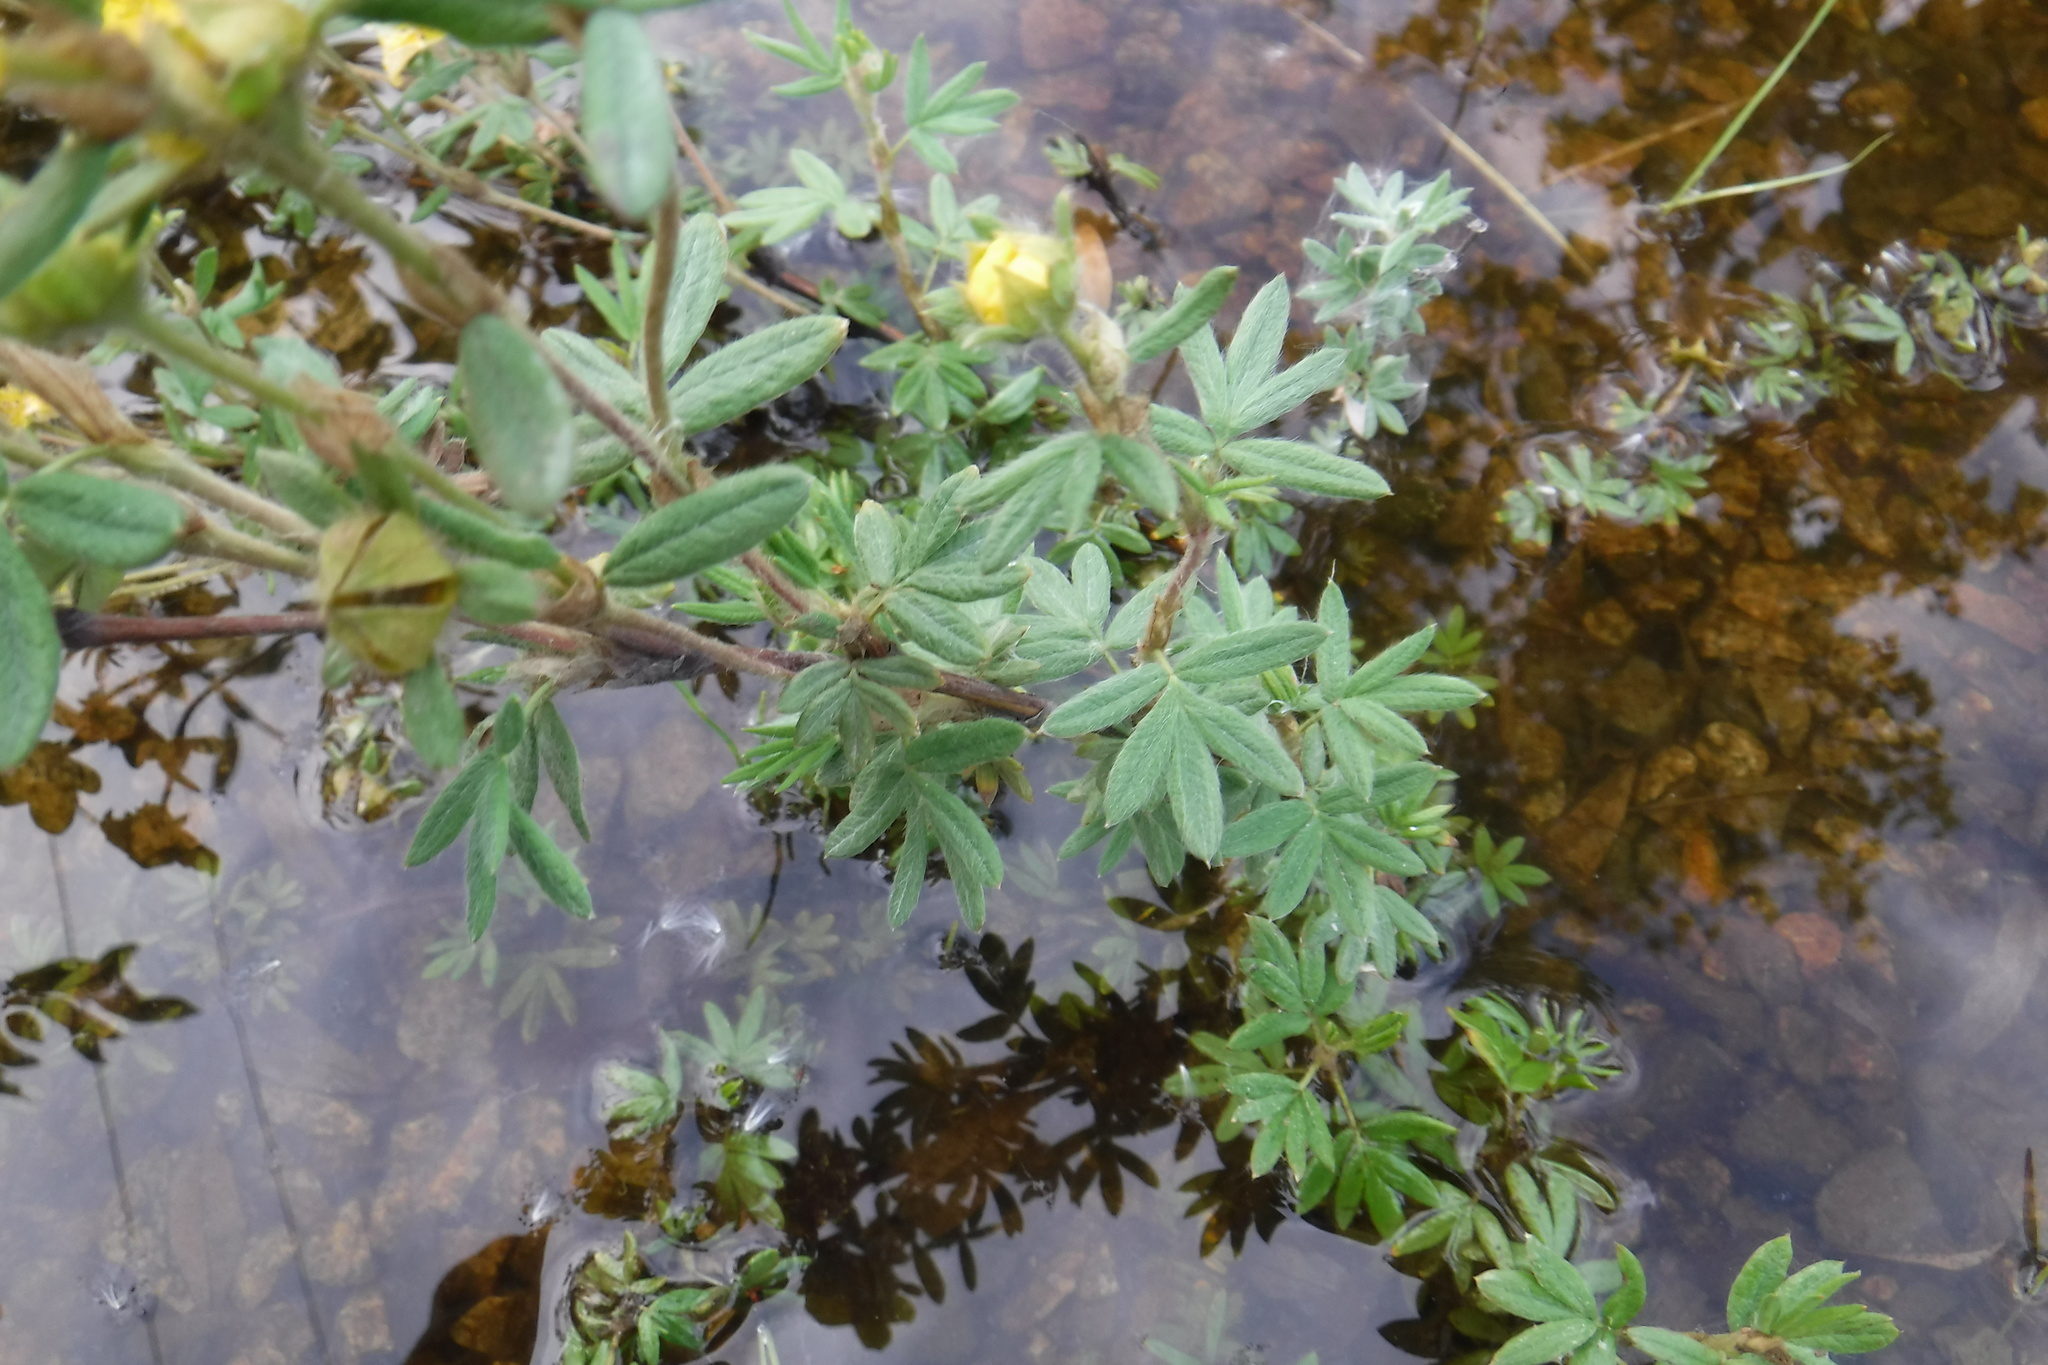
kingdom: Plantae
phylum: Tracheophyta
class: Magnoliopsida
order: Rosales
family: Rosaceae
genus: Dasiphora
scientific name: Dasiphora fruticosa
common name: Shrubby cinquefoil
